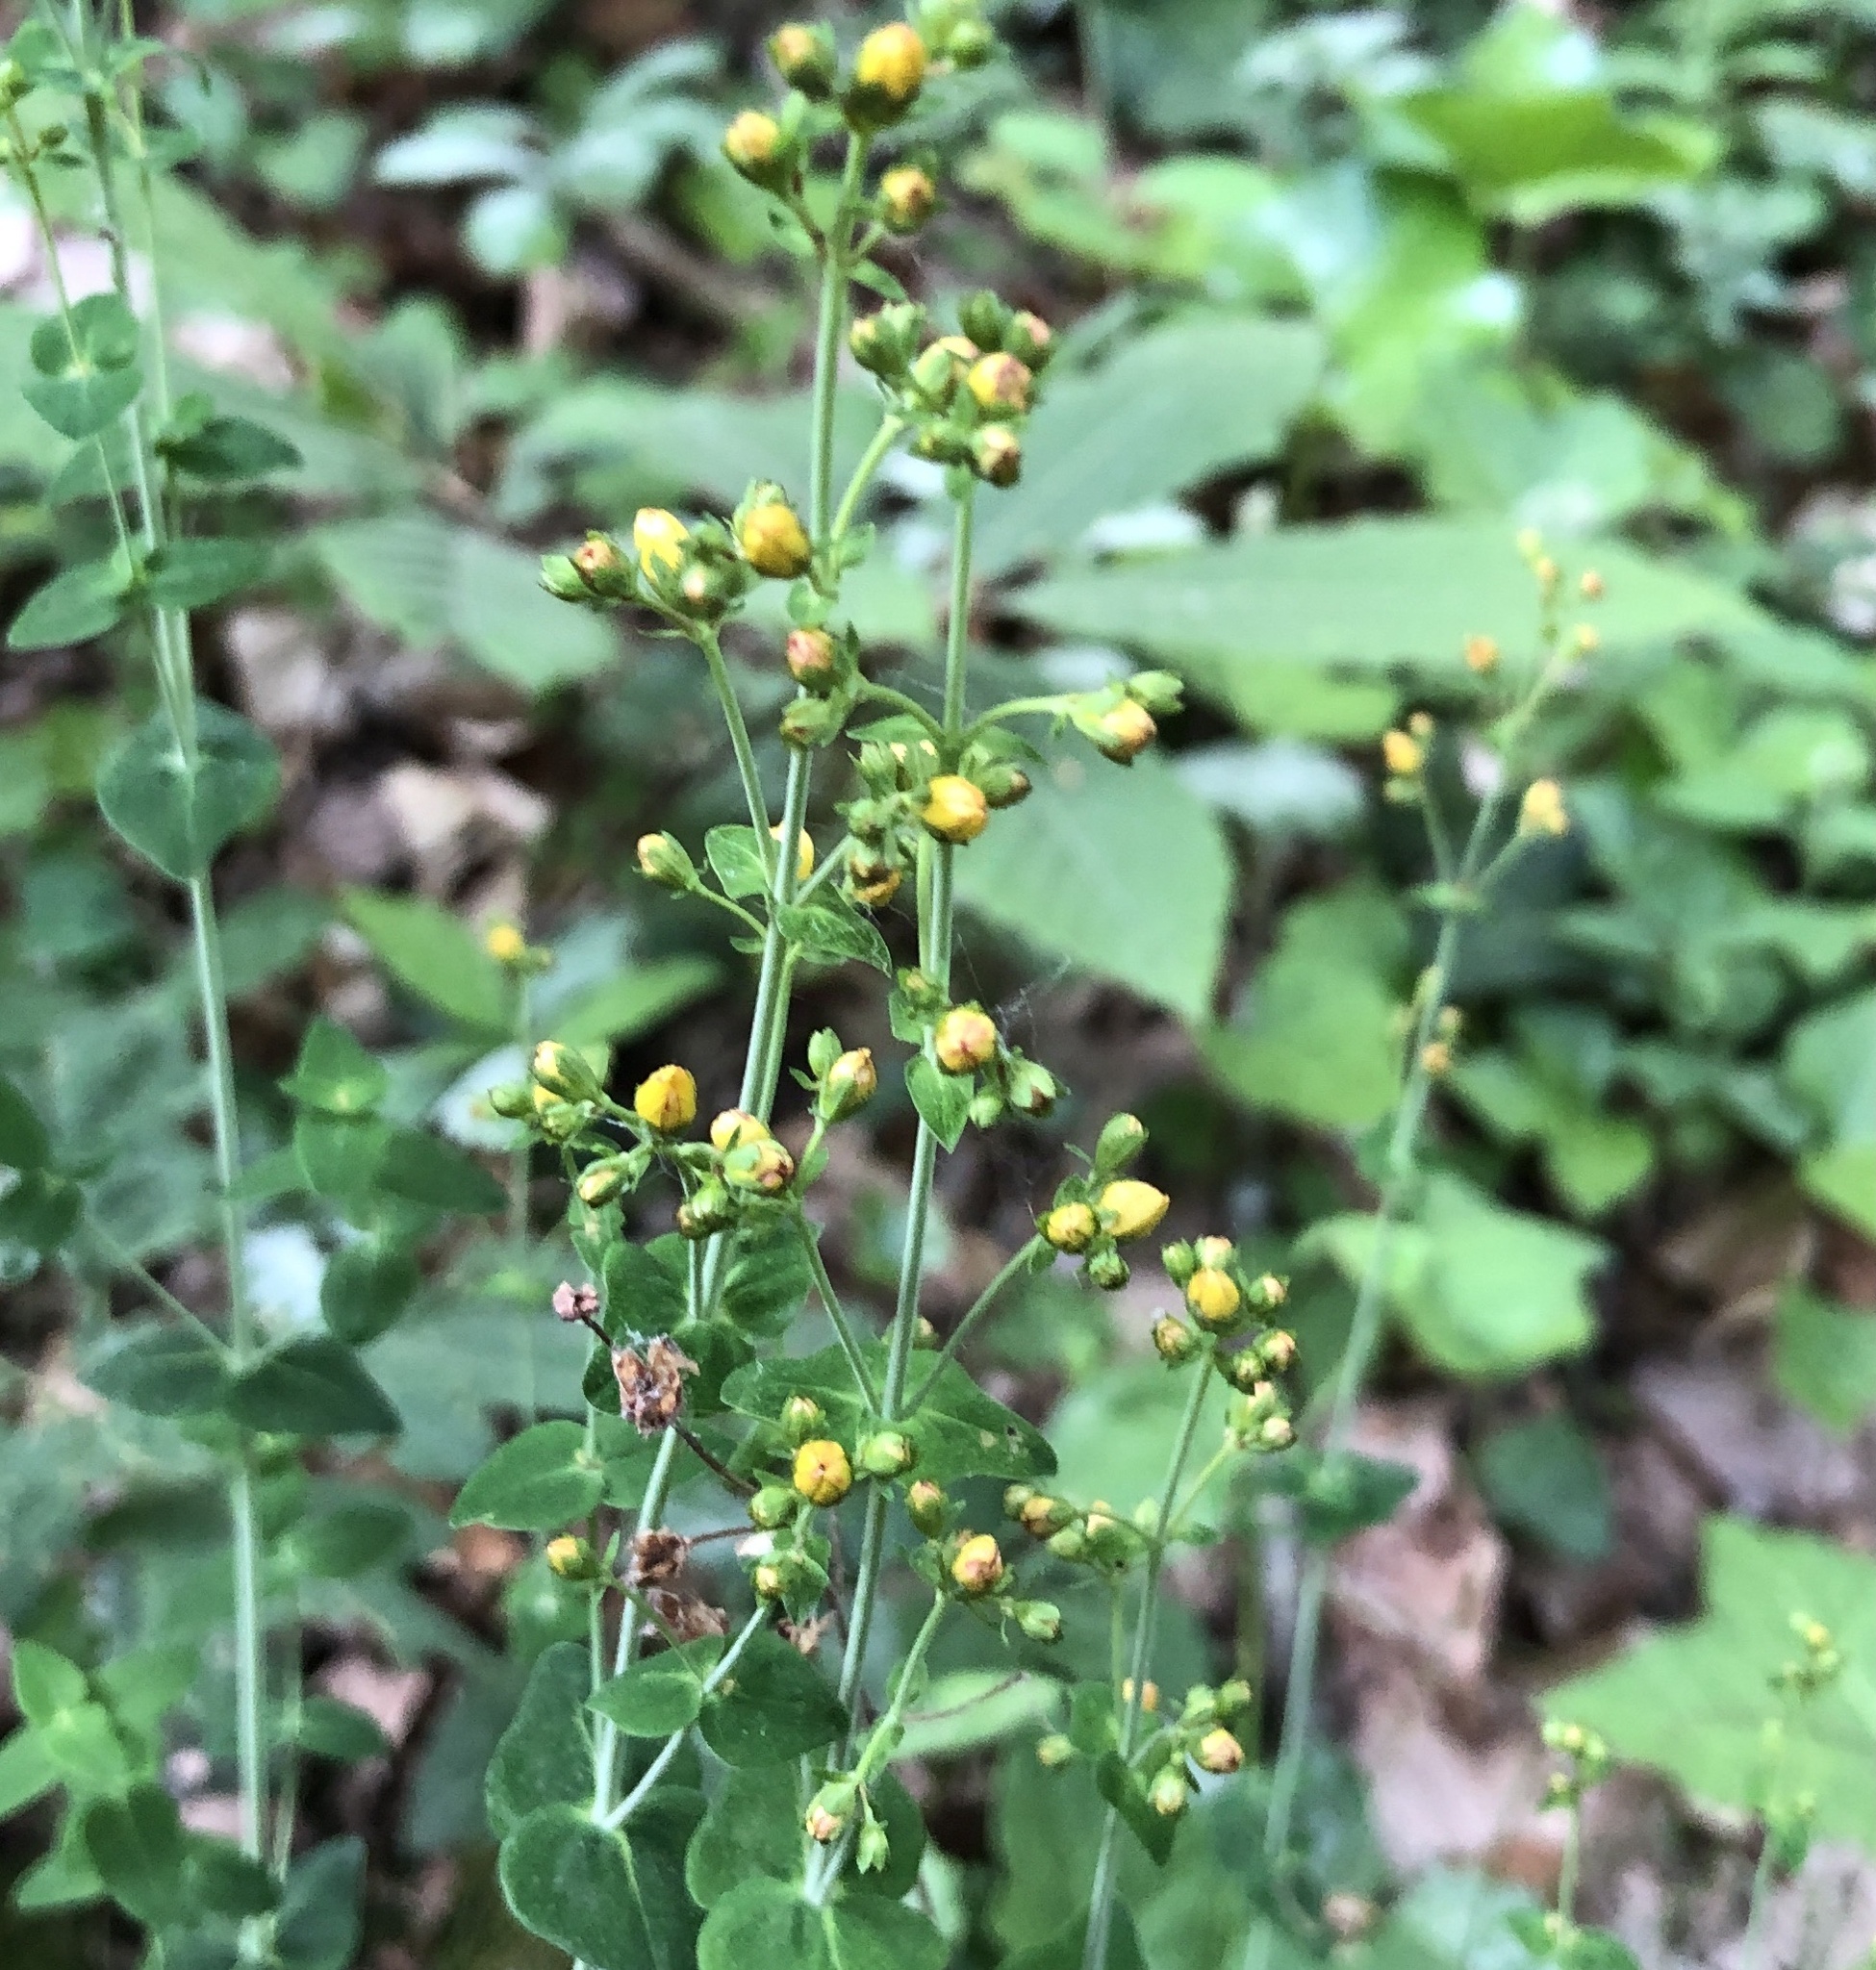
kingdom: Plantae
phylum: Tracheophyta
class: Magnoliopsida
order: Malpighiales
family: Hypericaceae
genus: Hypericum
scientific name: Hypericum pulchrum
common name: Slender st. john's-wort
